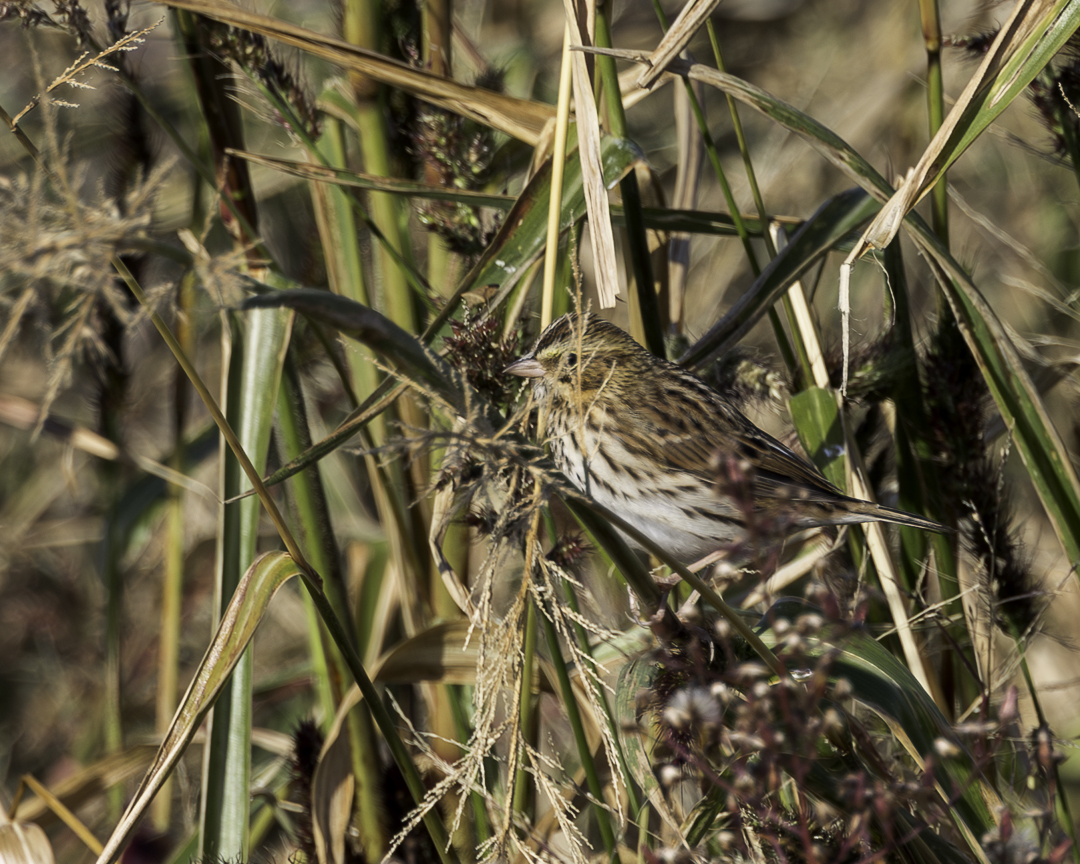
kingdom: Animalia
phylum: Chordata
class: Aves
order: Passeriformes
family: Passerellidae
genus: Passerculus
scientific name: Passerculus sandwichensis
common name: Savannah sparrow
